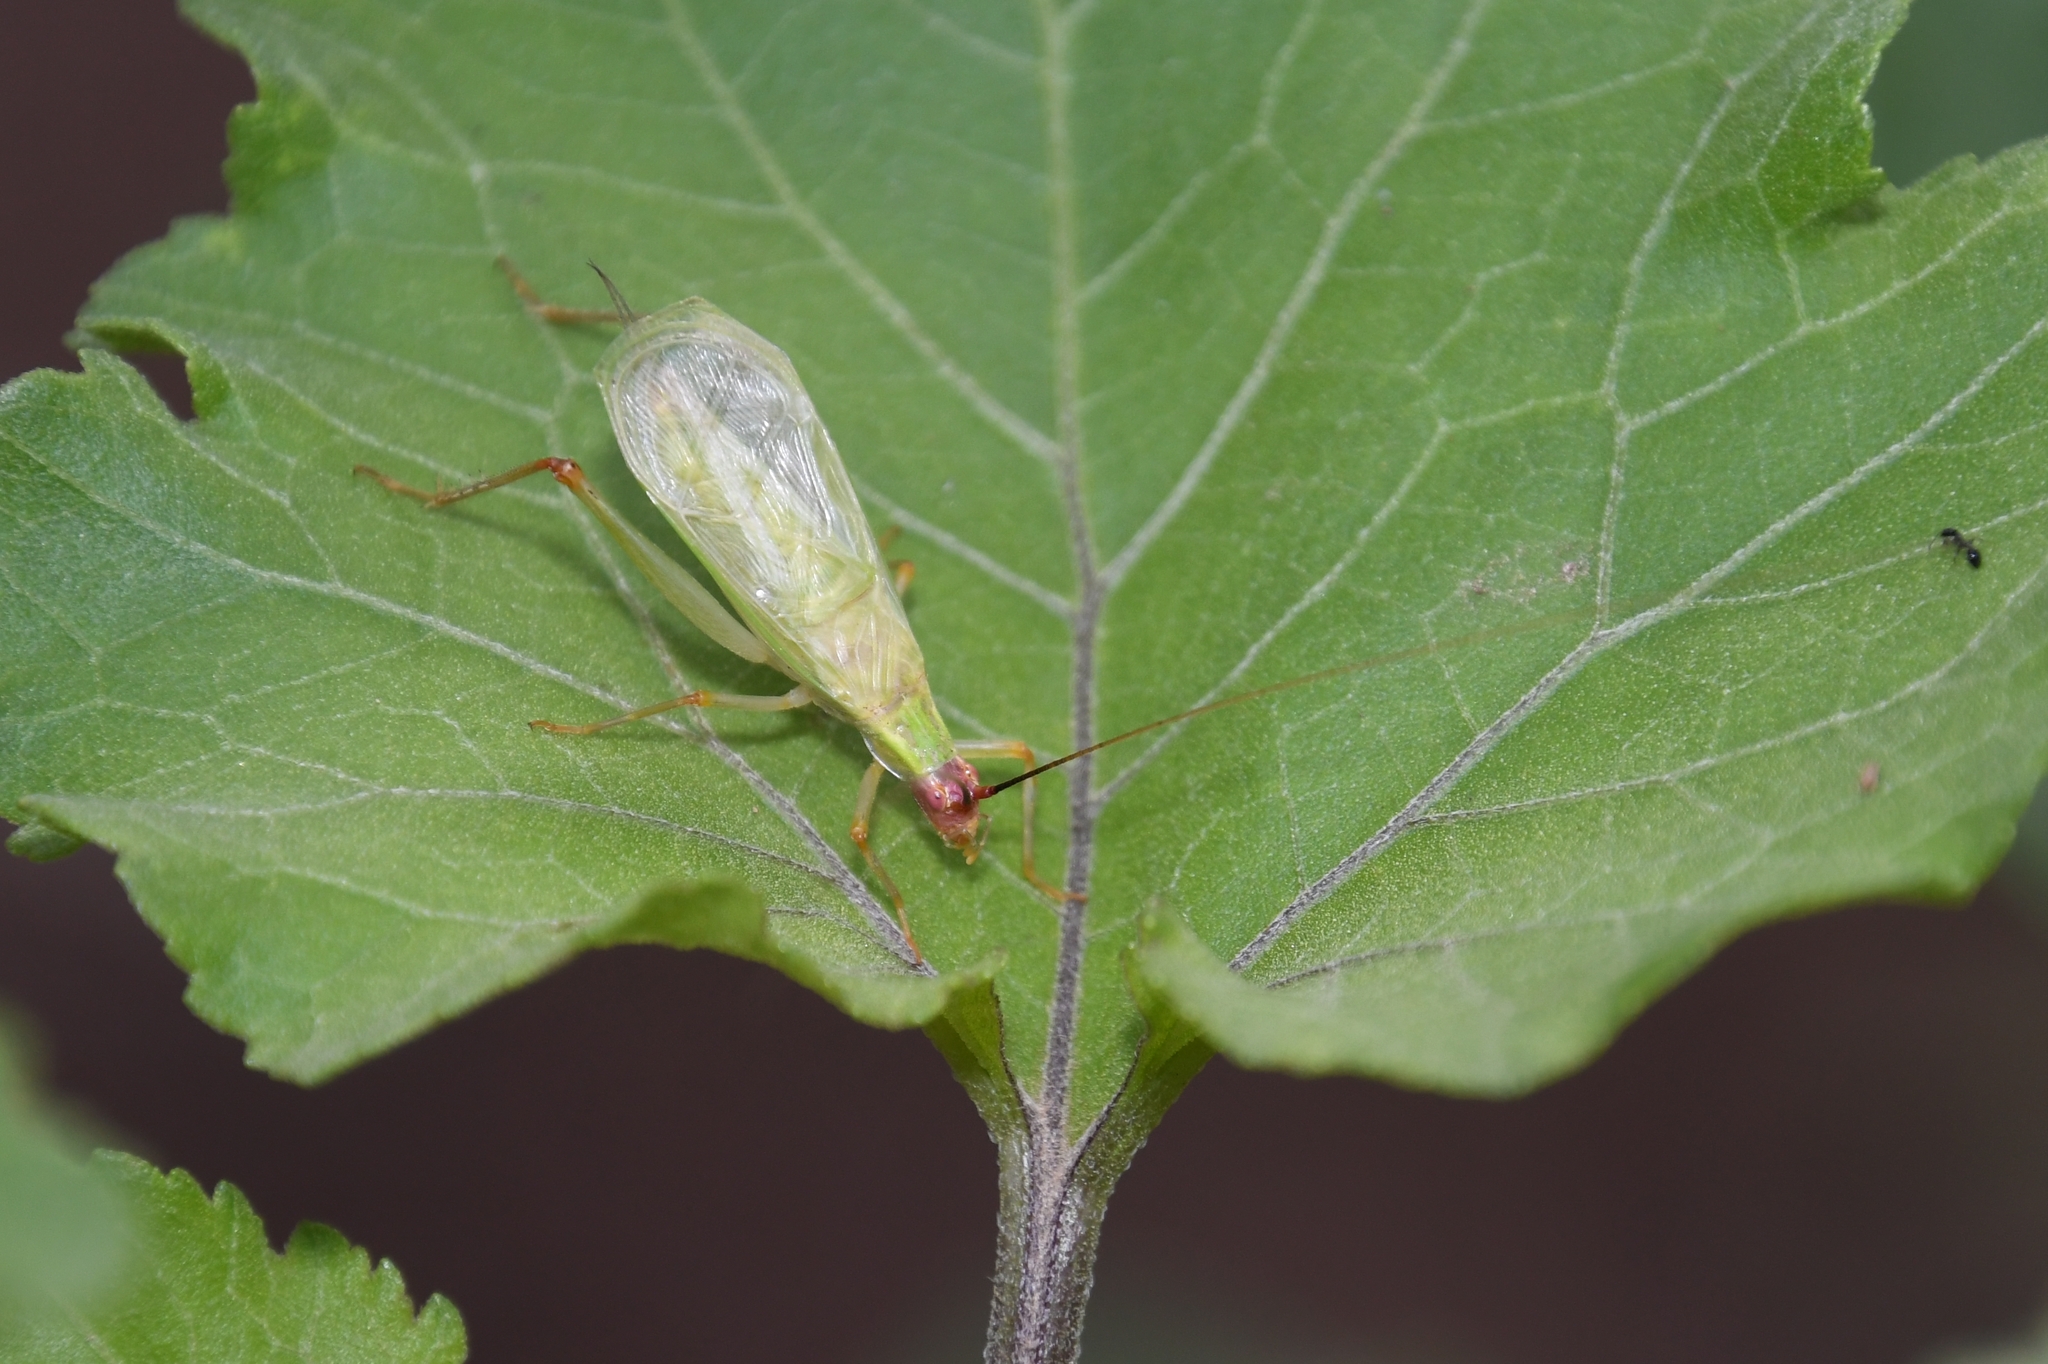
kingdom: Animalia
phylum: Arthropoda
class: Insecta
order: Orthoptera
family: Gryllidae
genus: Oecanthus
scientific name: Oecanthus californicus
